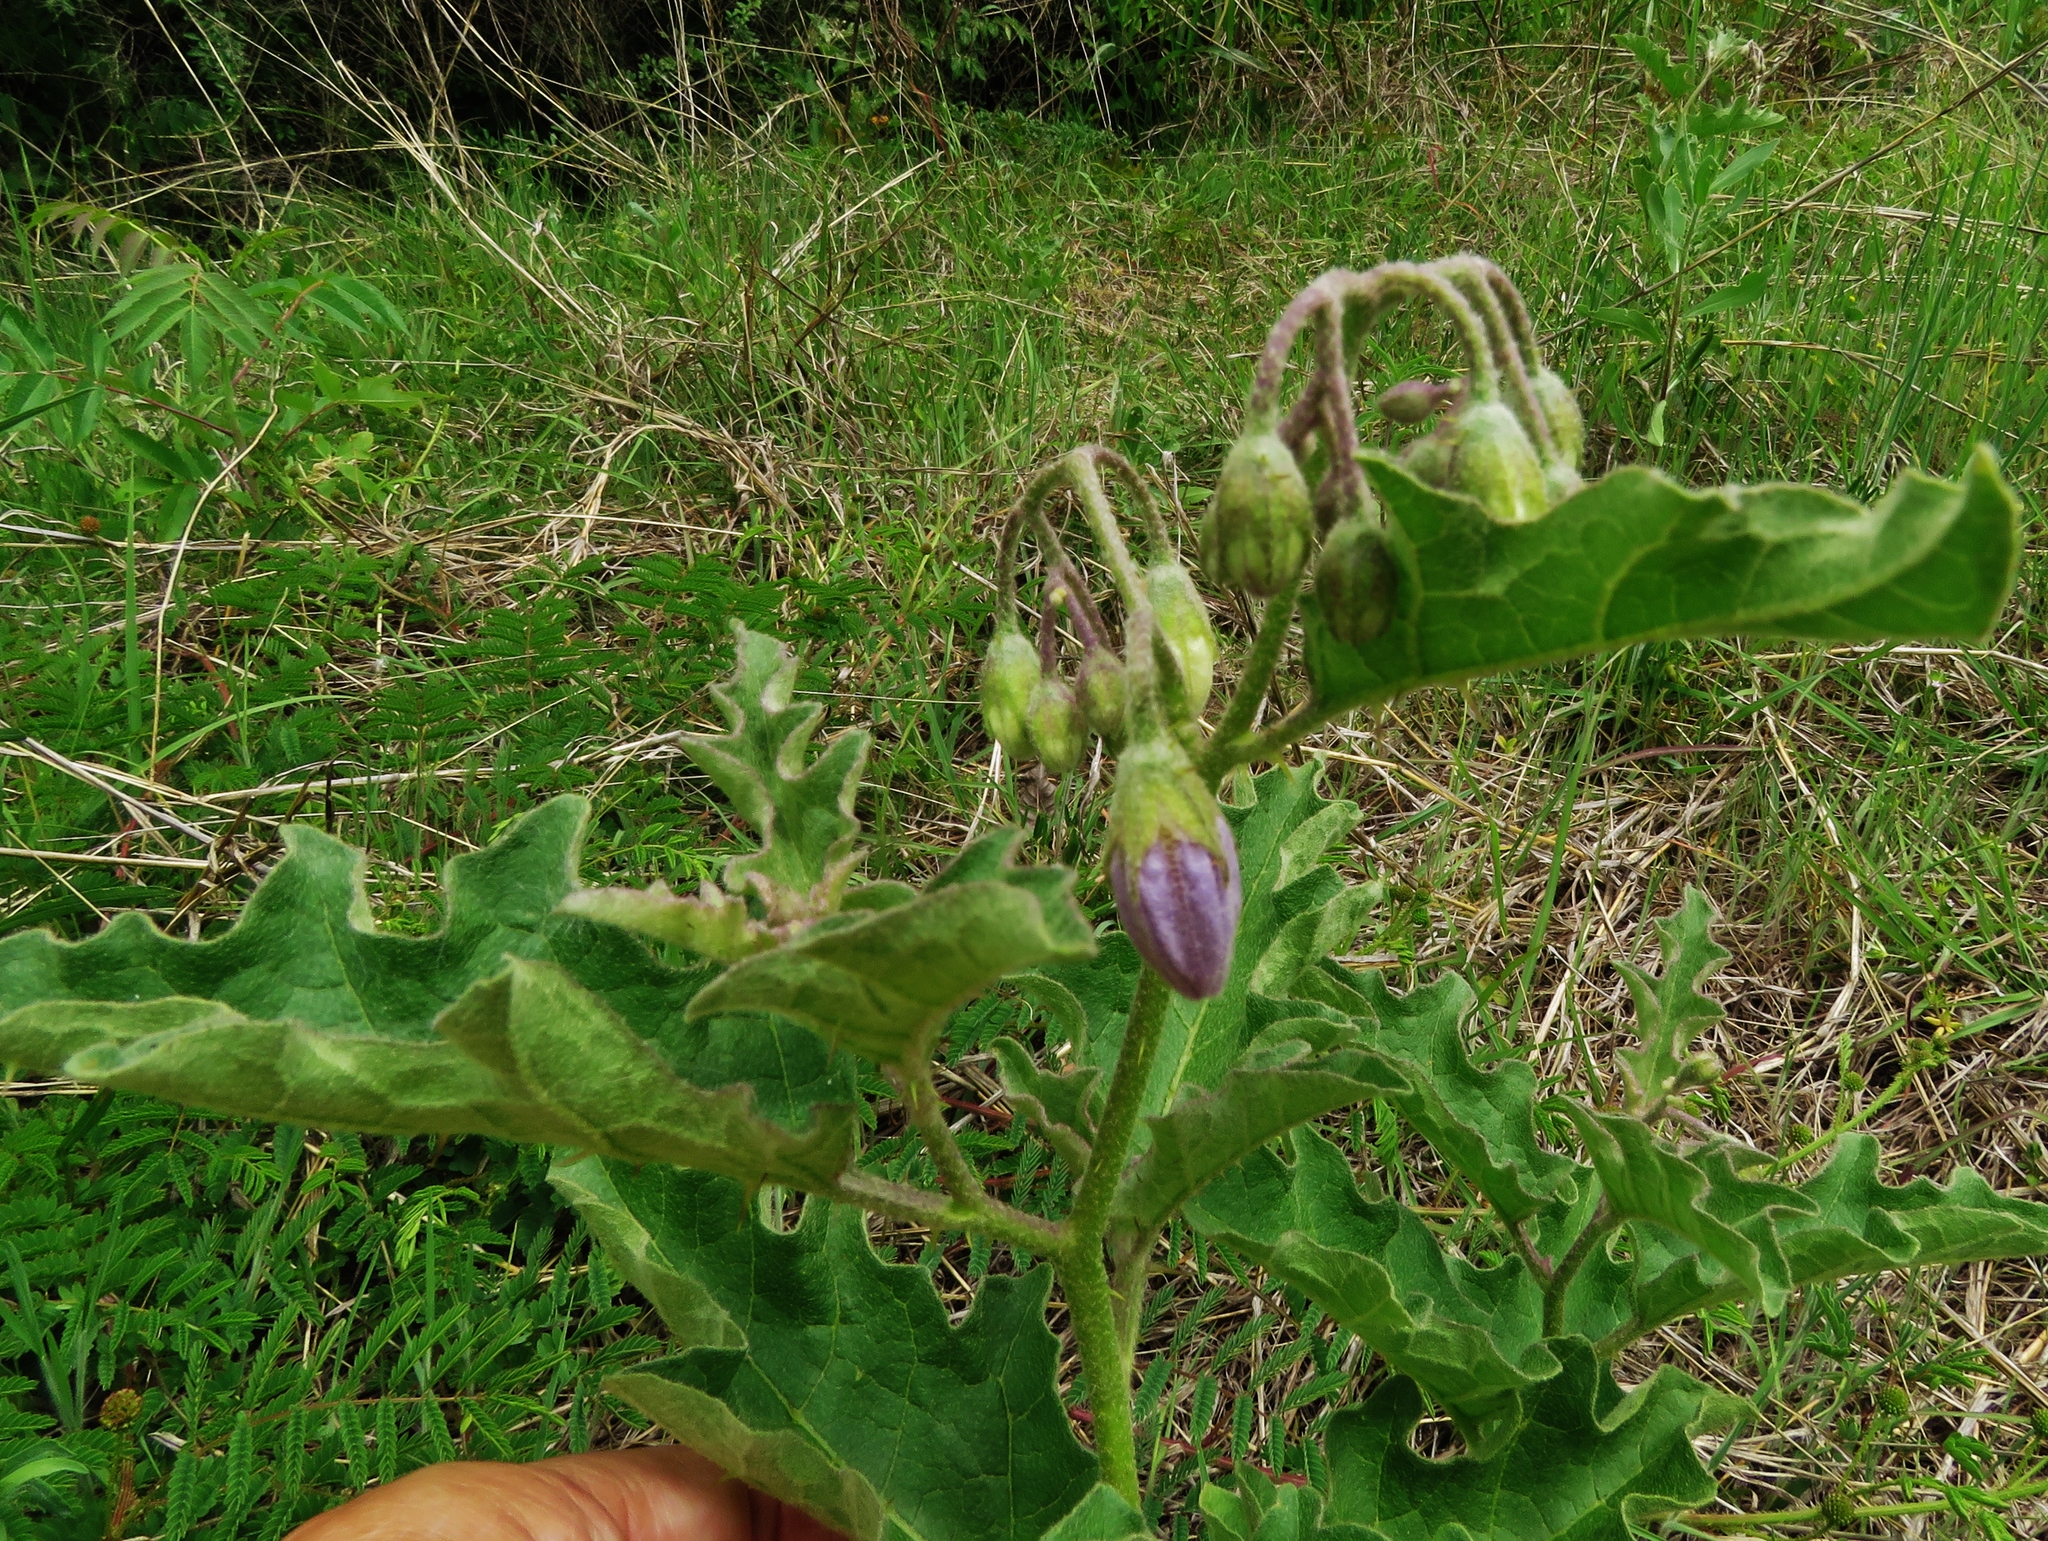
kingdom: Plantae
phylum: Tracheophyta
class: Magnoliopsida
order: Solanales
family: Solanaceae
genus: Solanum
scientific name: Solanum dimidiatum
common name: Carolina horse-nettle
